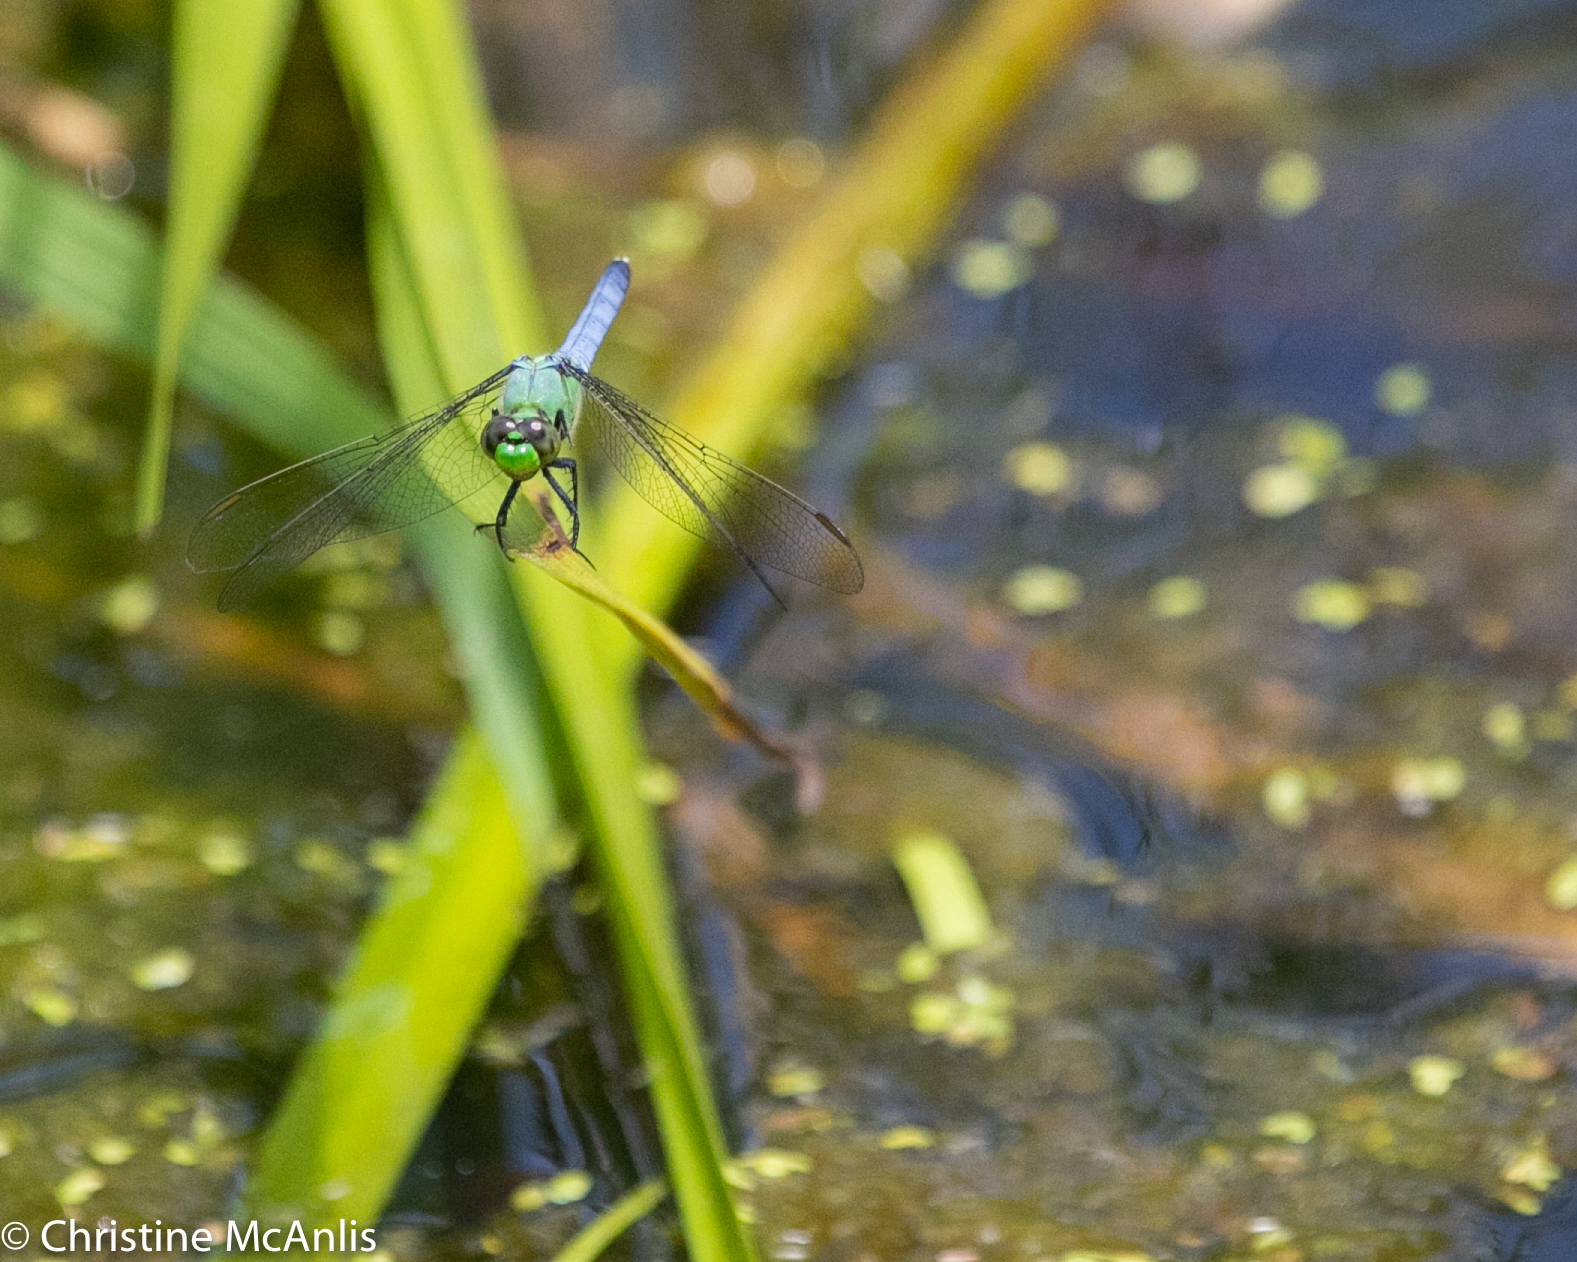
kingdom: Animalia
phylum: Arthropoda
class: Insecta
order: Odonata
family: Libellulidae
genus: Erythemis
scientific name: Erythemis simplicicollis
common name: Eastern pondhawk
